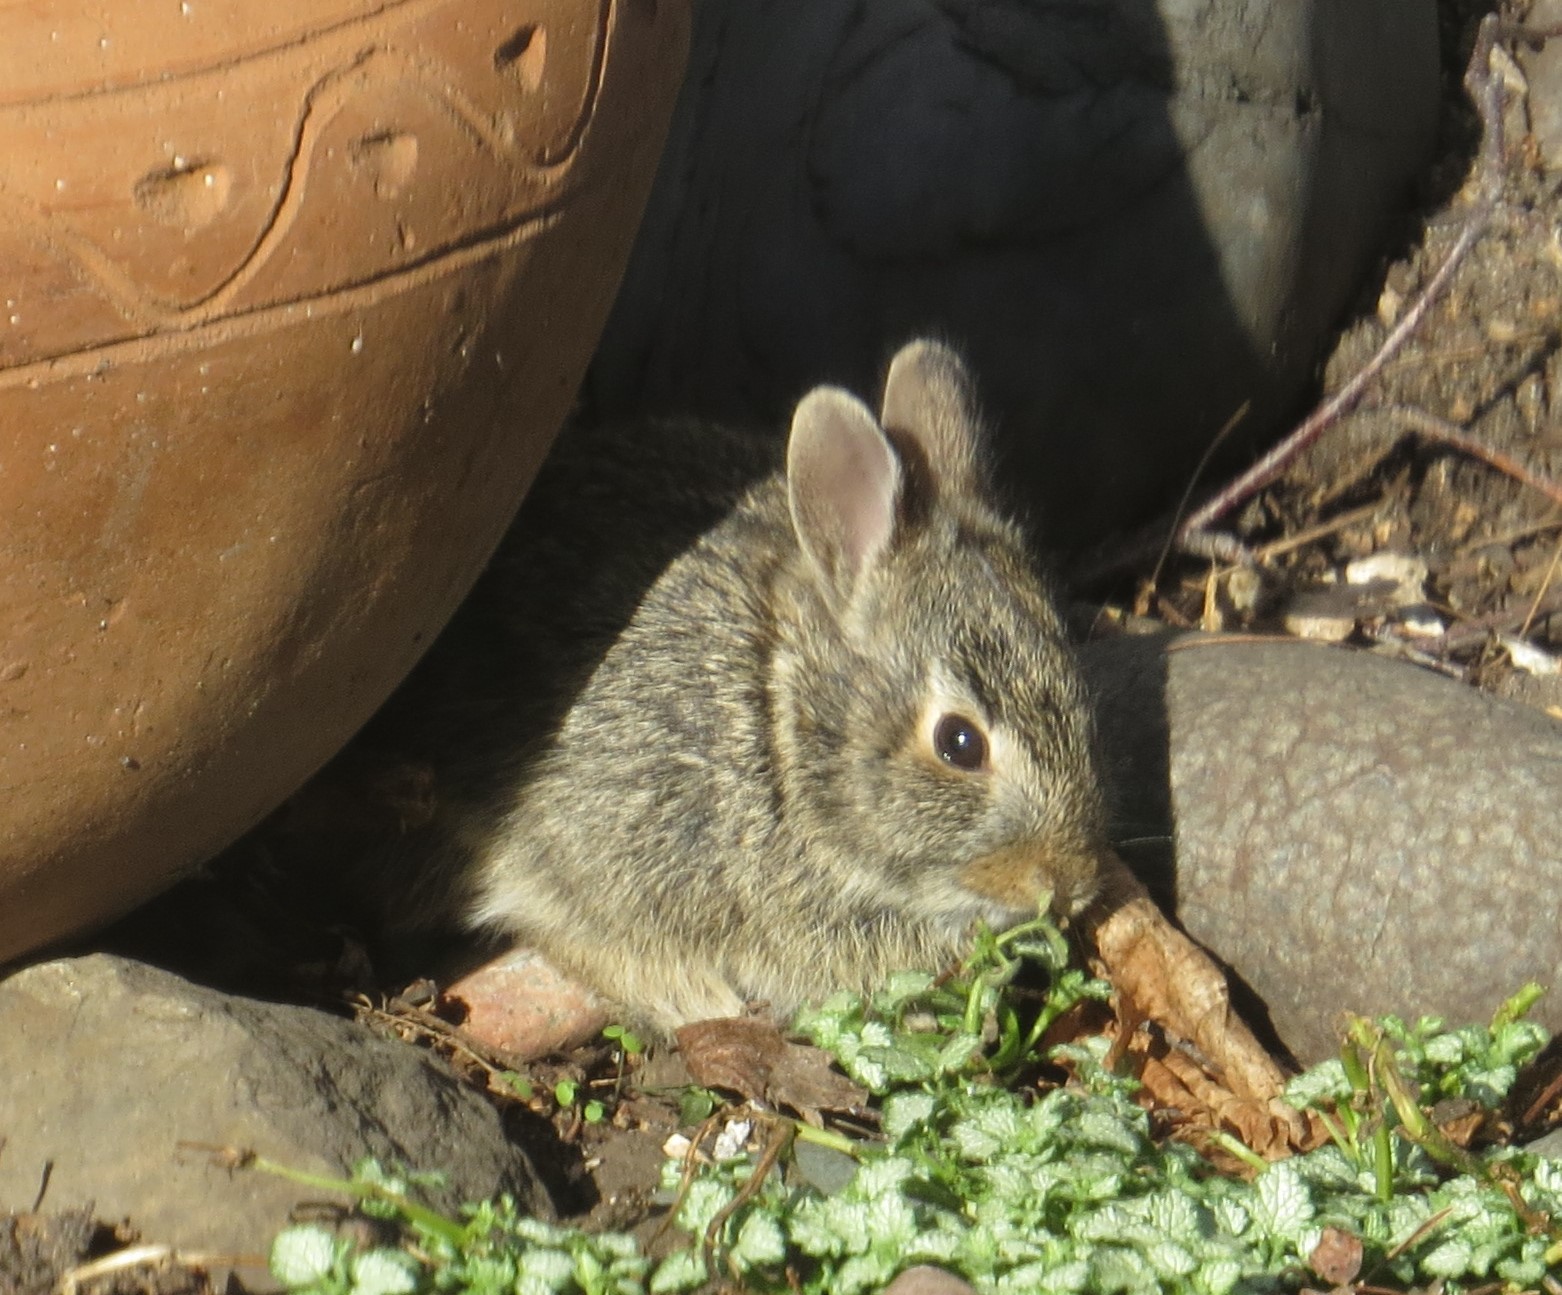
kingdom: Animalia
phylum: Chordata
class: Mammalia
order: Lagomorpha
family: Leporidae
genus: Sylvilagus
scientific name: Sylvilagus floridanus
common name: Eastern cottontail
